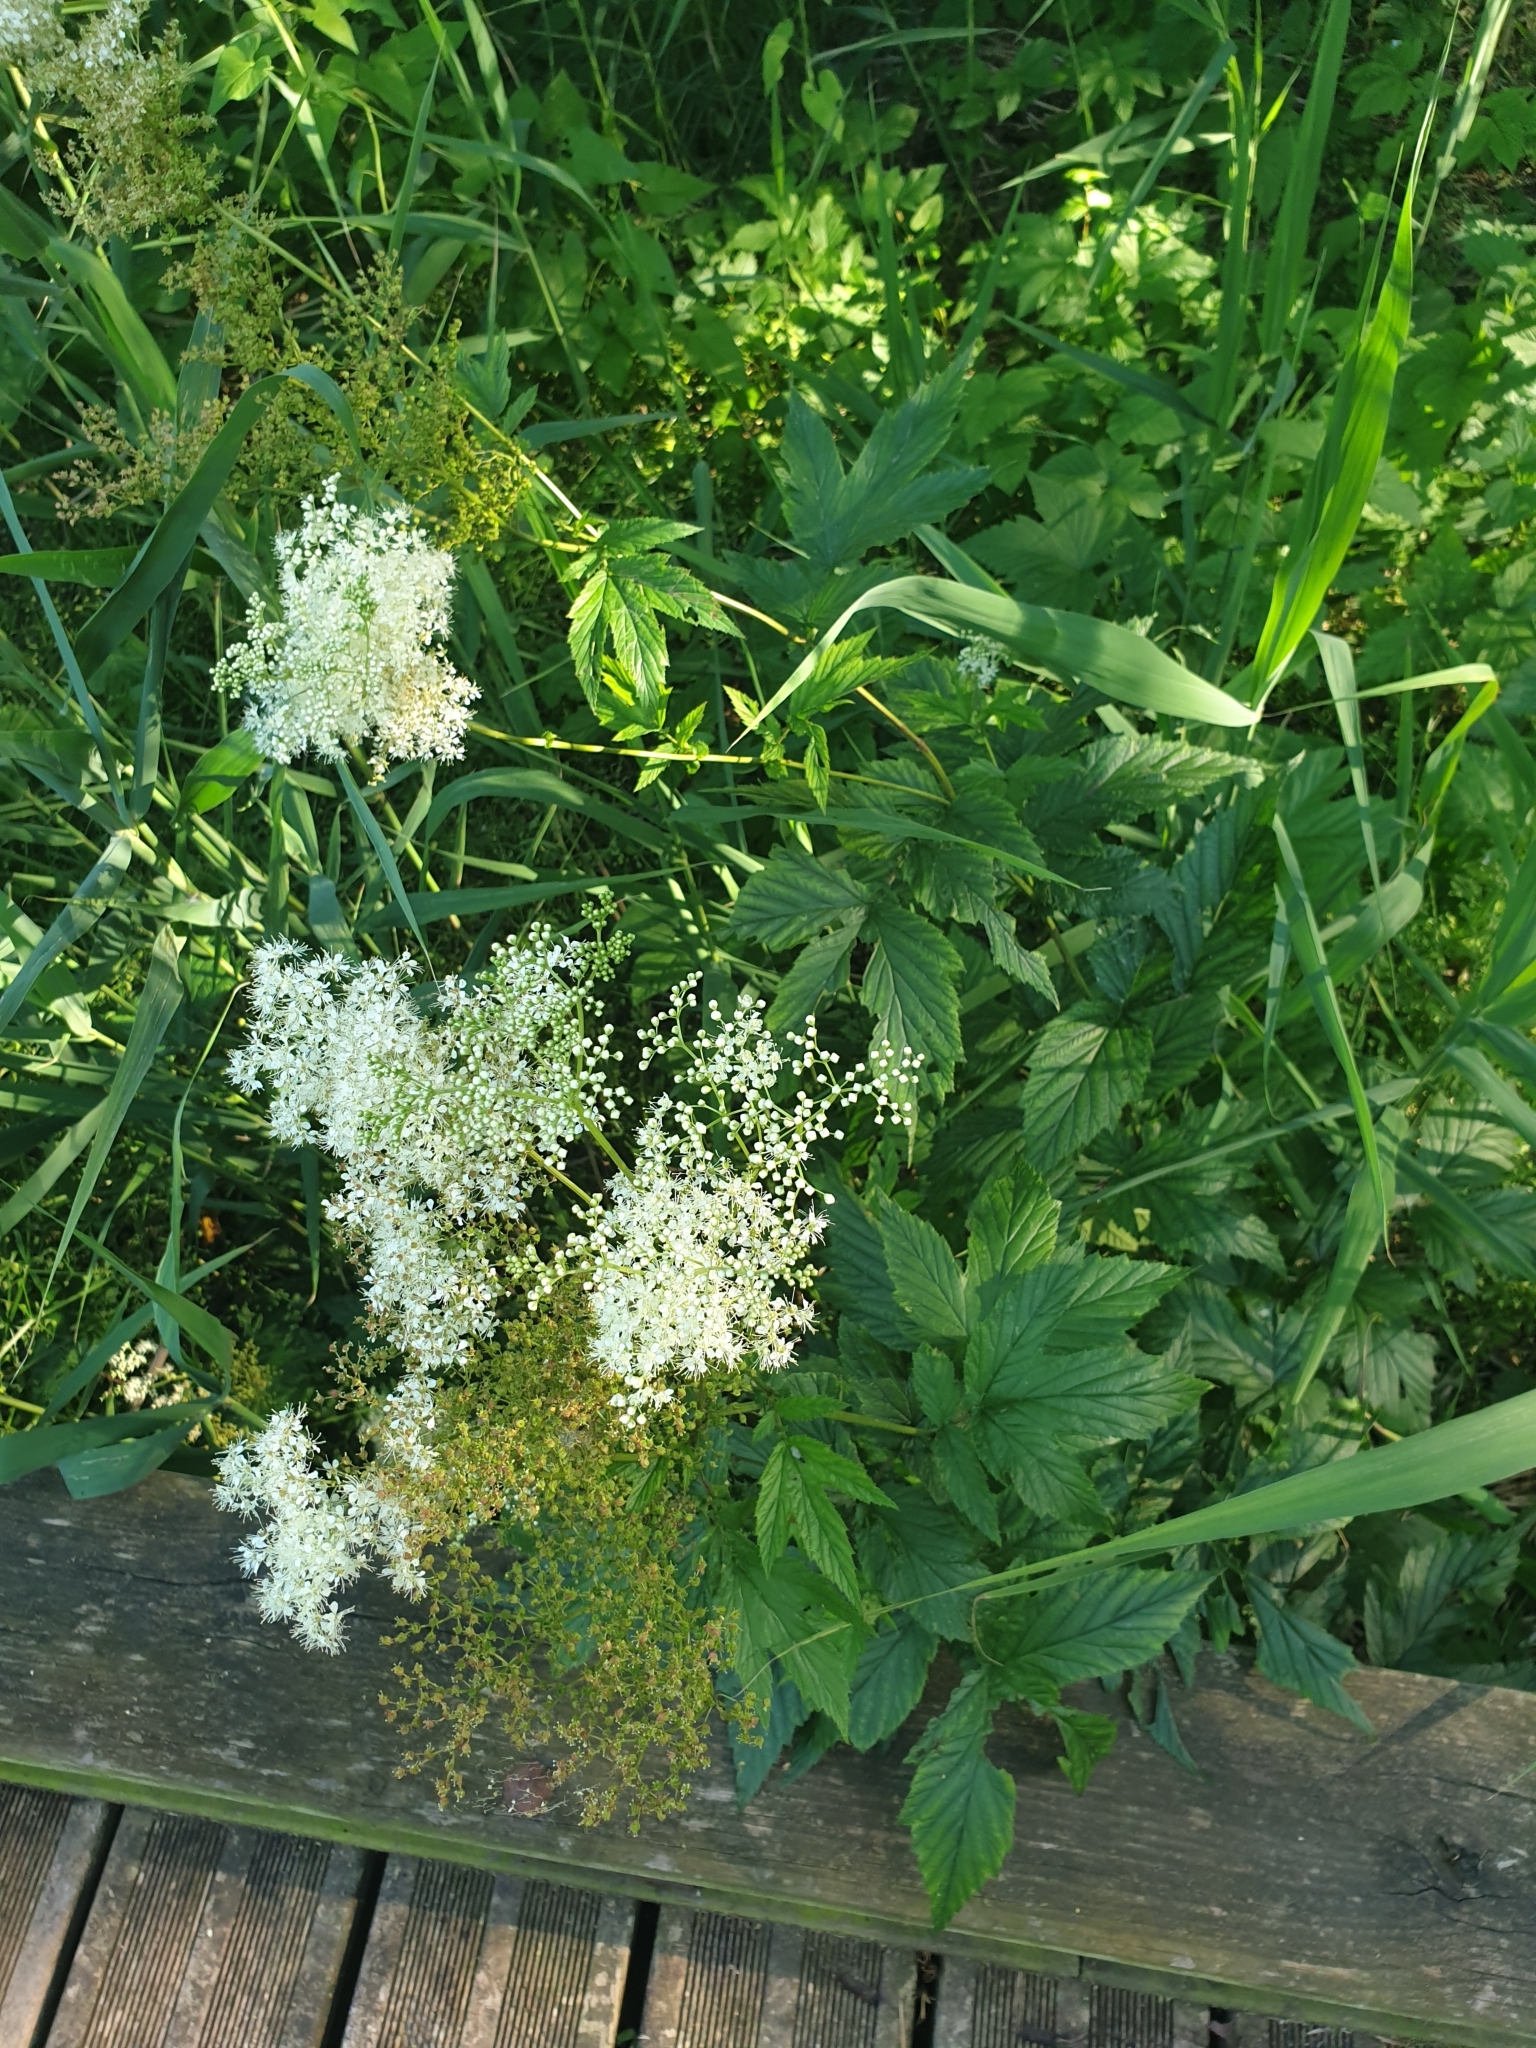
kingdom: Plantae
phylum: Tracheophyta
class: Magnoliopsida
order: Rosales
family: Rosaceae
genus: Filipendula
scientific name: Filipendula ulmaria
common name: Meadowsweet
